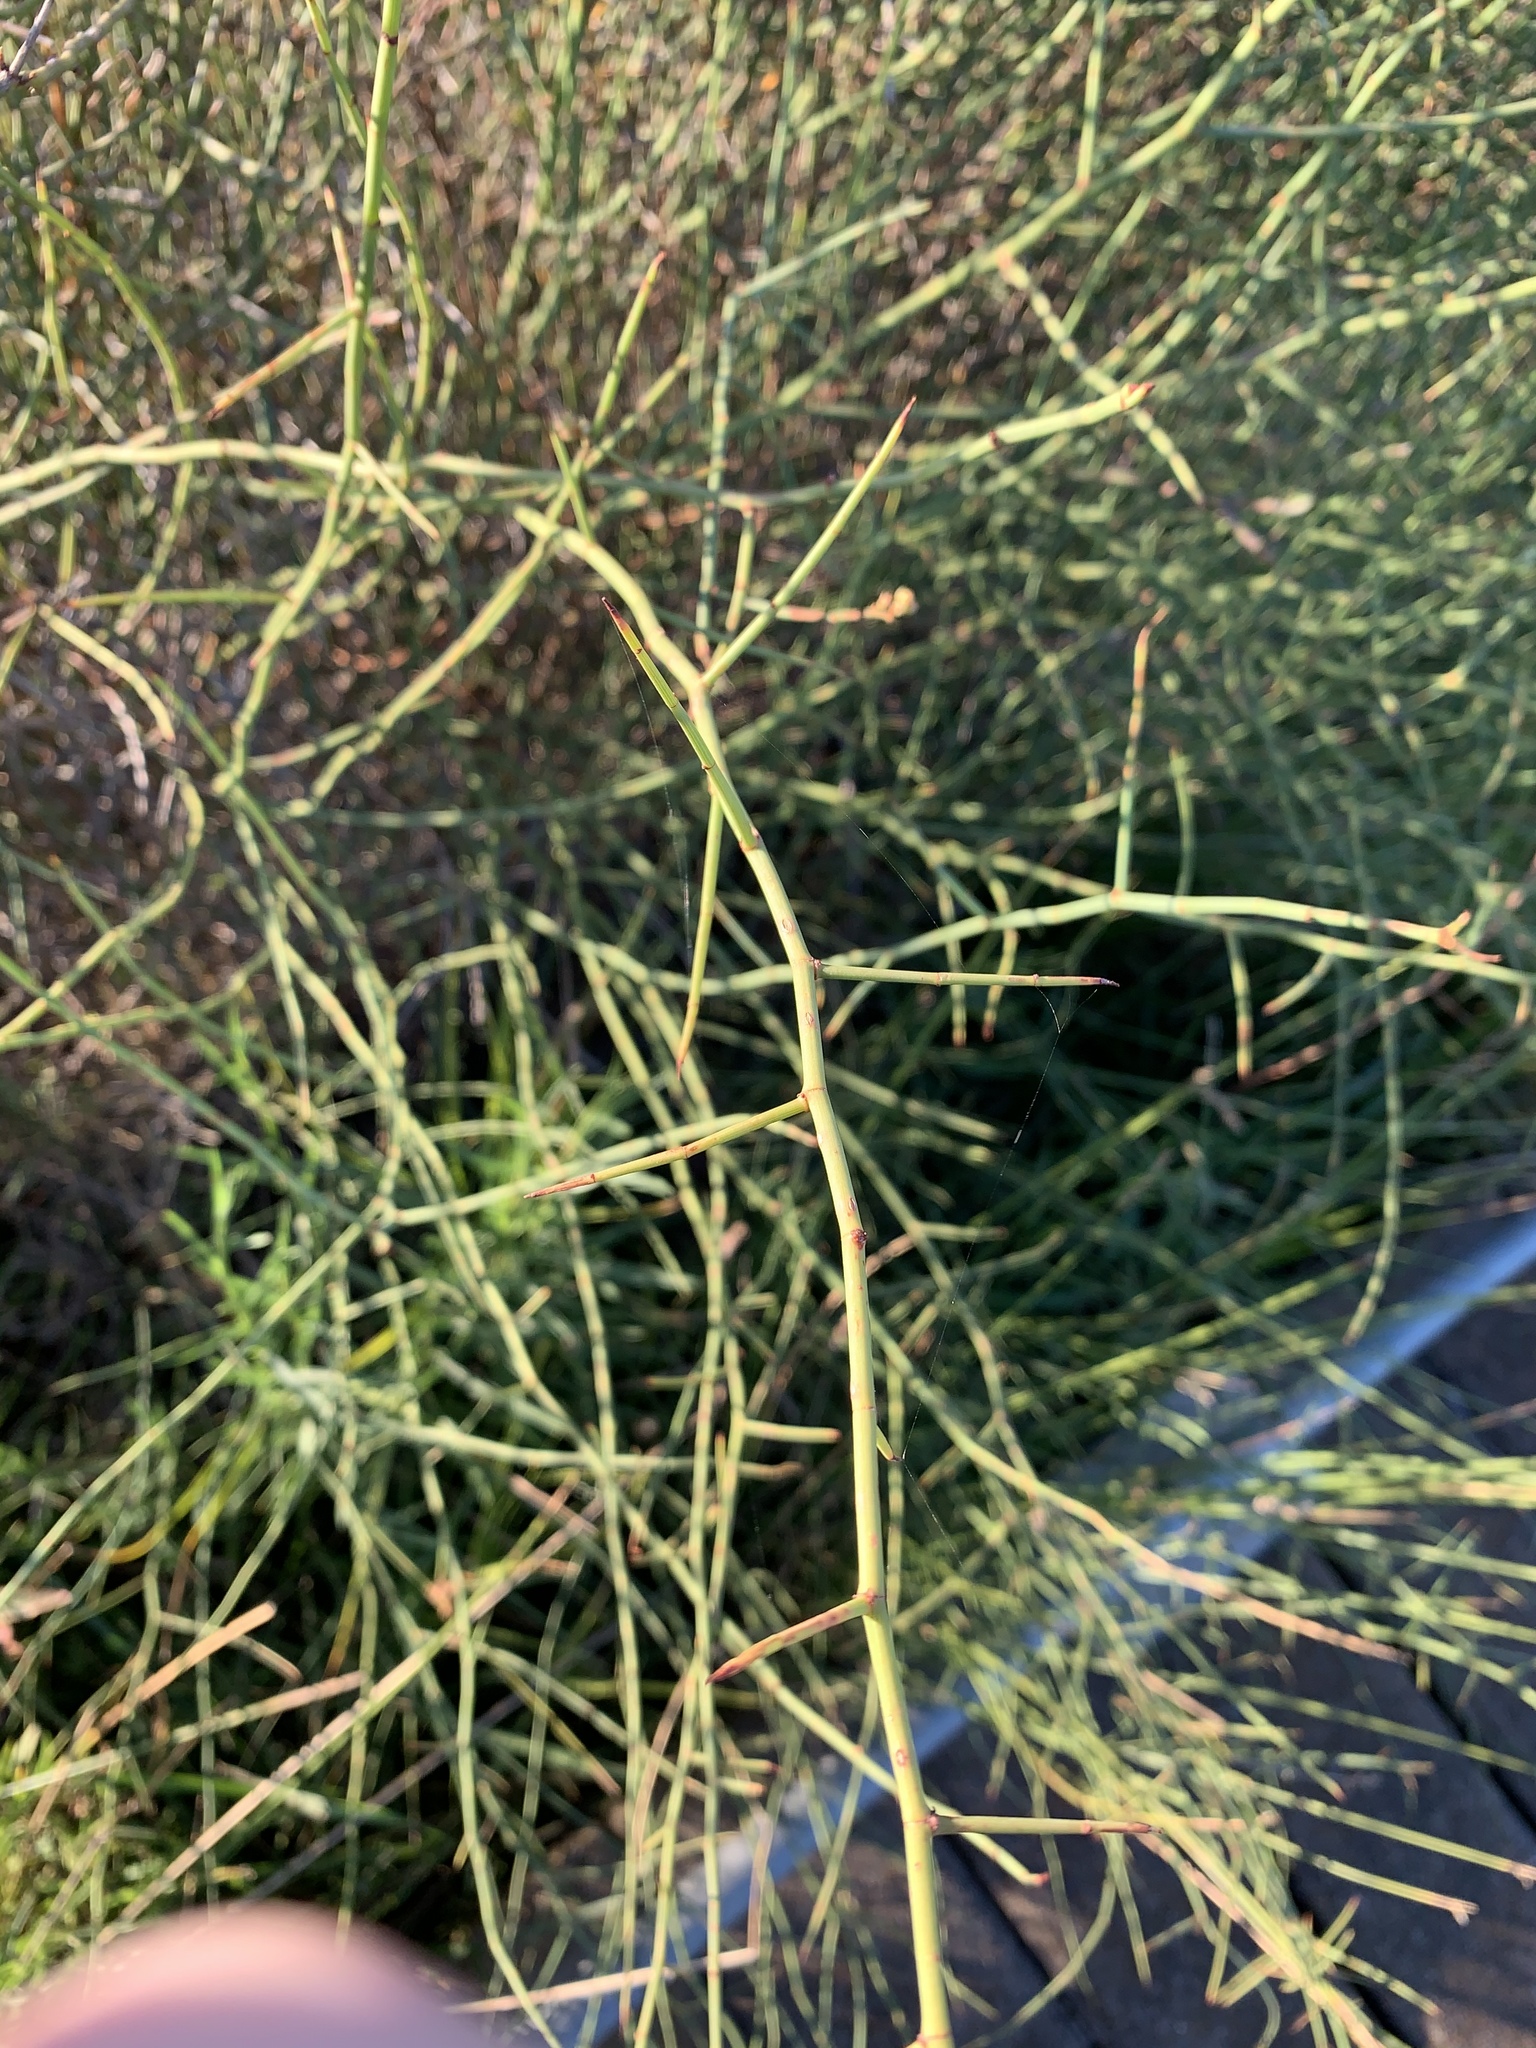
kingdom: Plantae
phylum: Tracheophyta
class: Magnoliopsida
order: Caryophyllales
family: Polygonaceae
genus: Duma
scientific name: Duma florulenta
